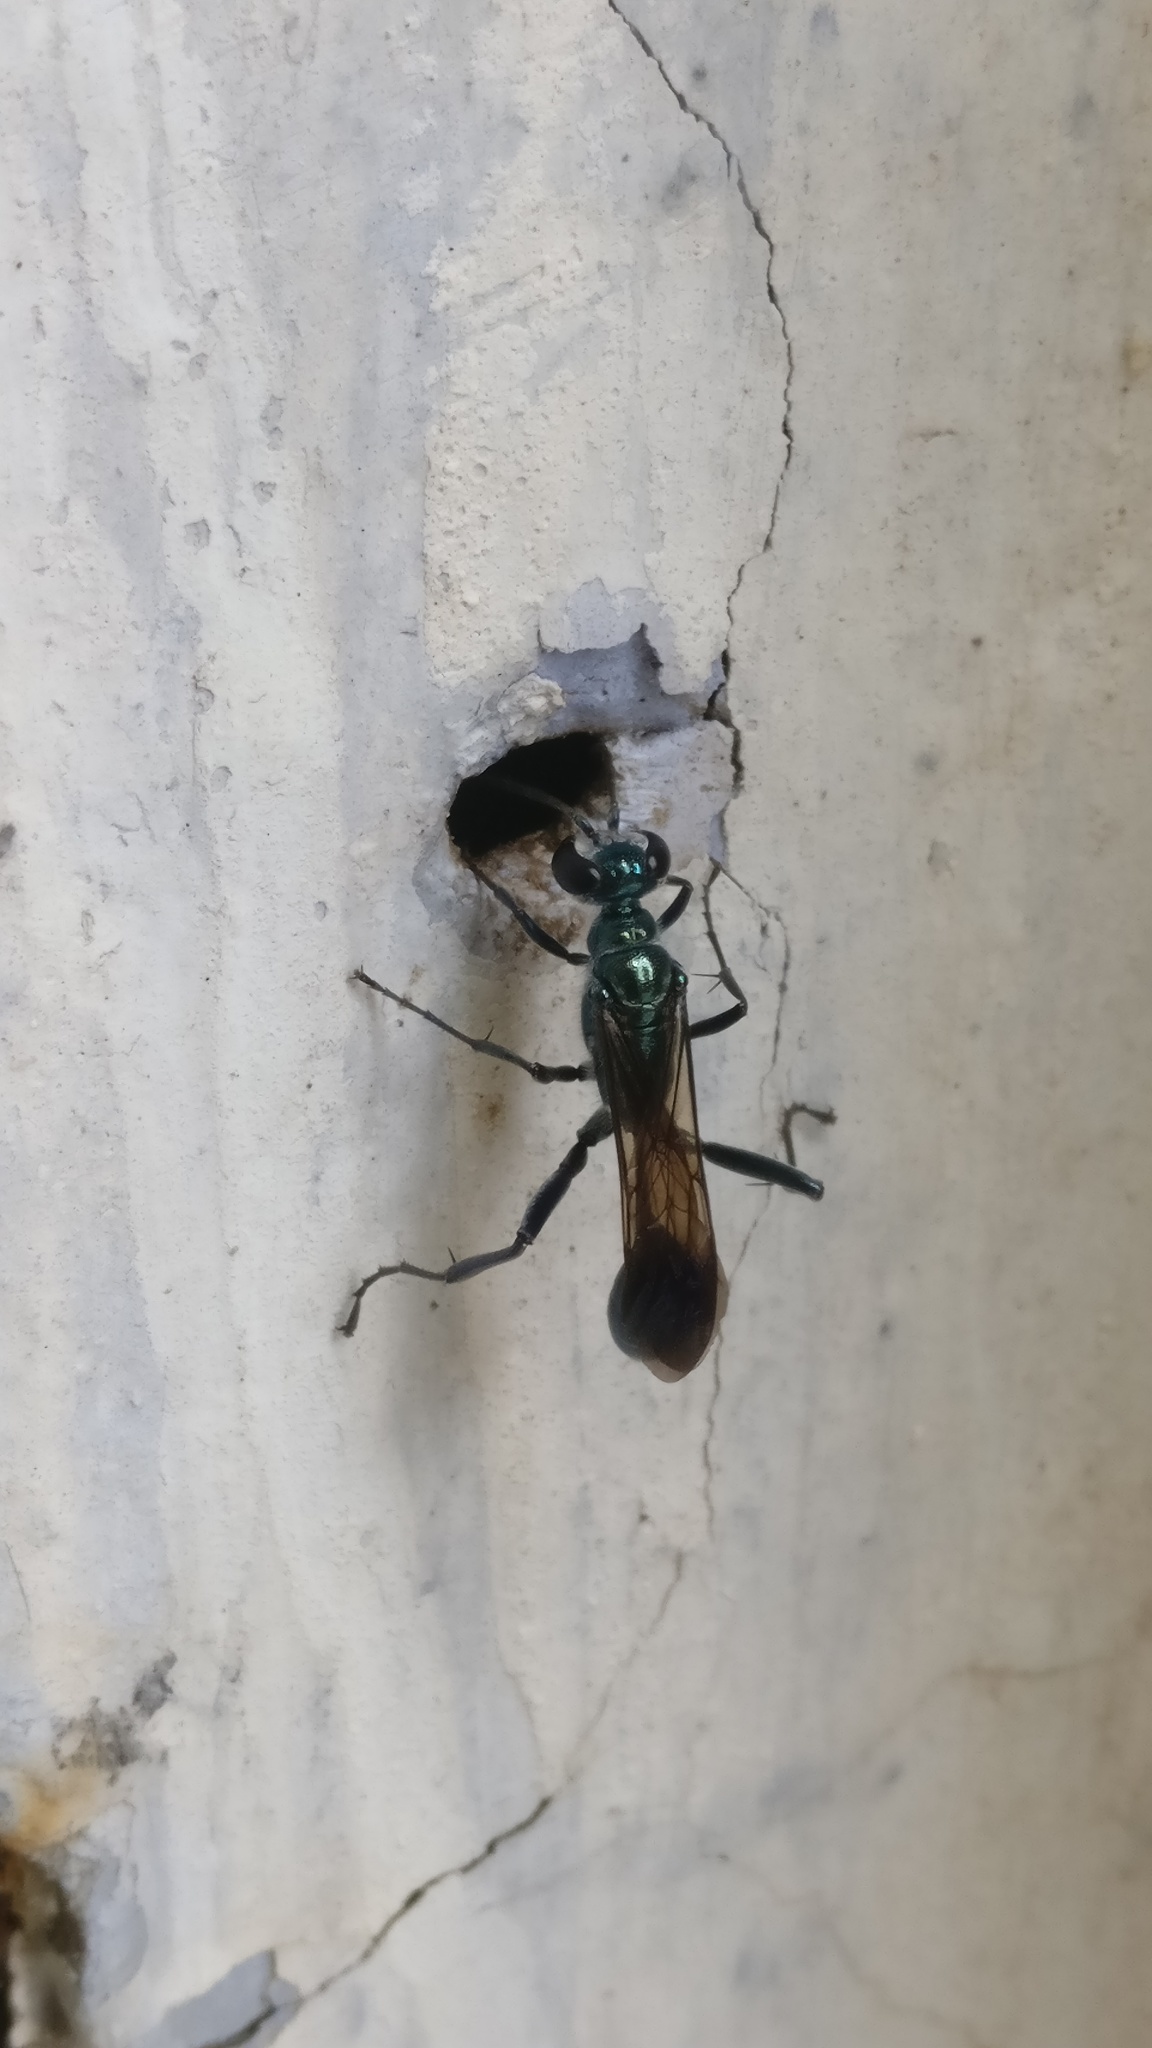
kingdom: Animalia
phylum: Arthropoda
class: Insecta
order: Hymenoptera
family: Sphecidae
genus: Chalybion
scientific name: Chalybion bengalense
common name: Mud dauber
